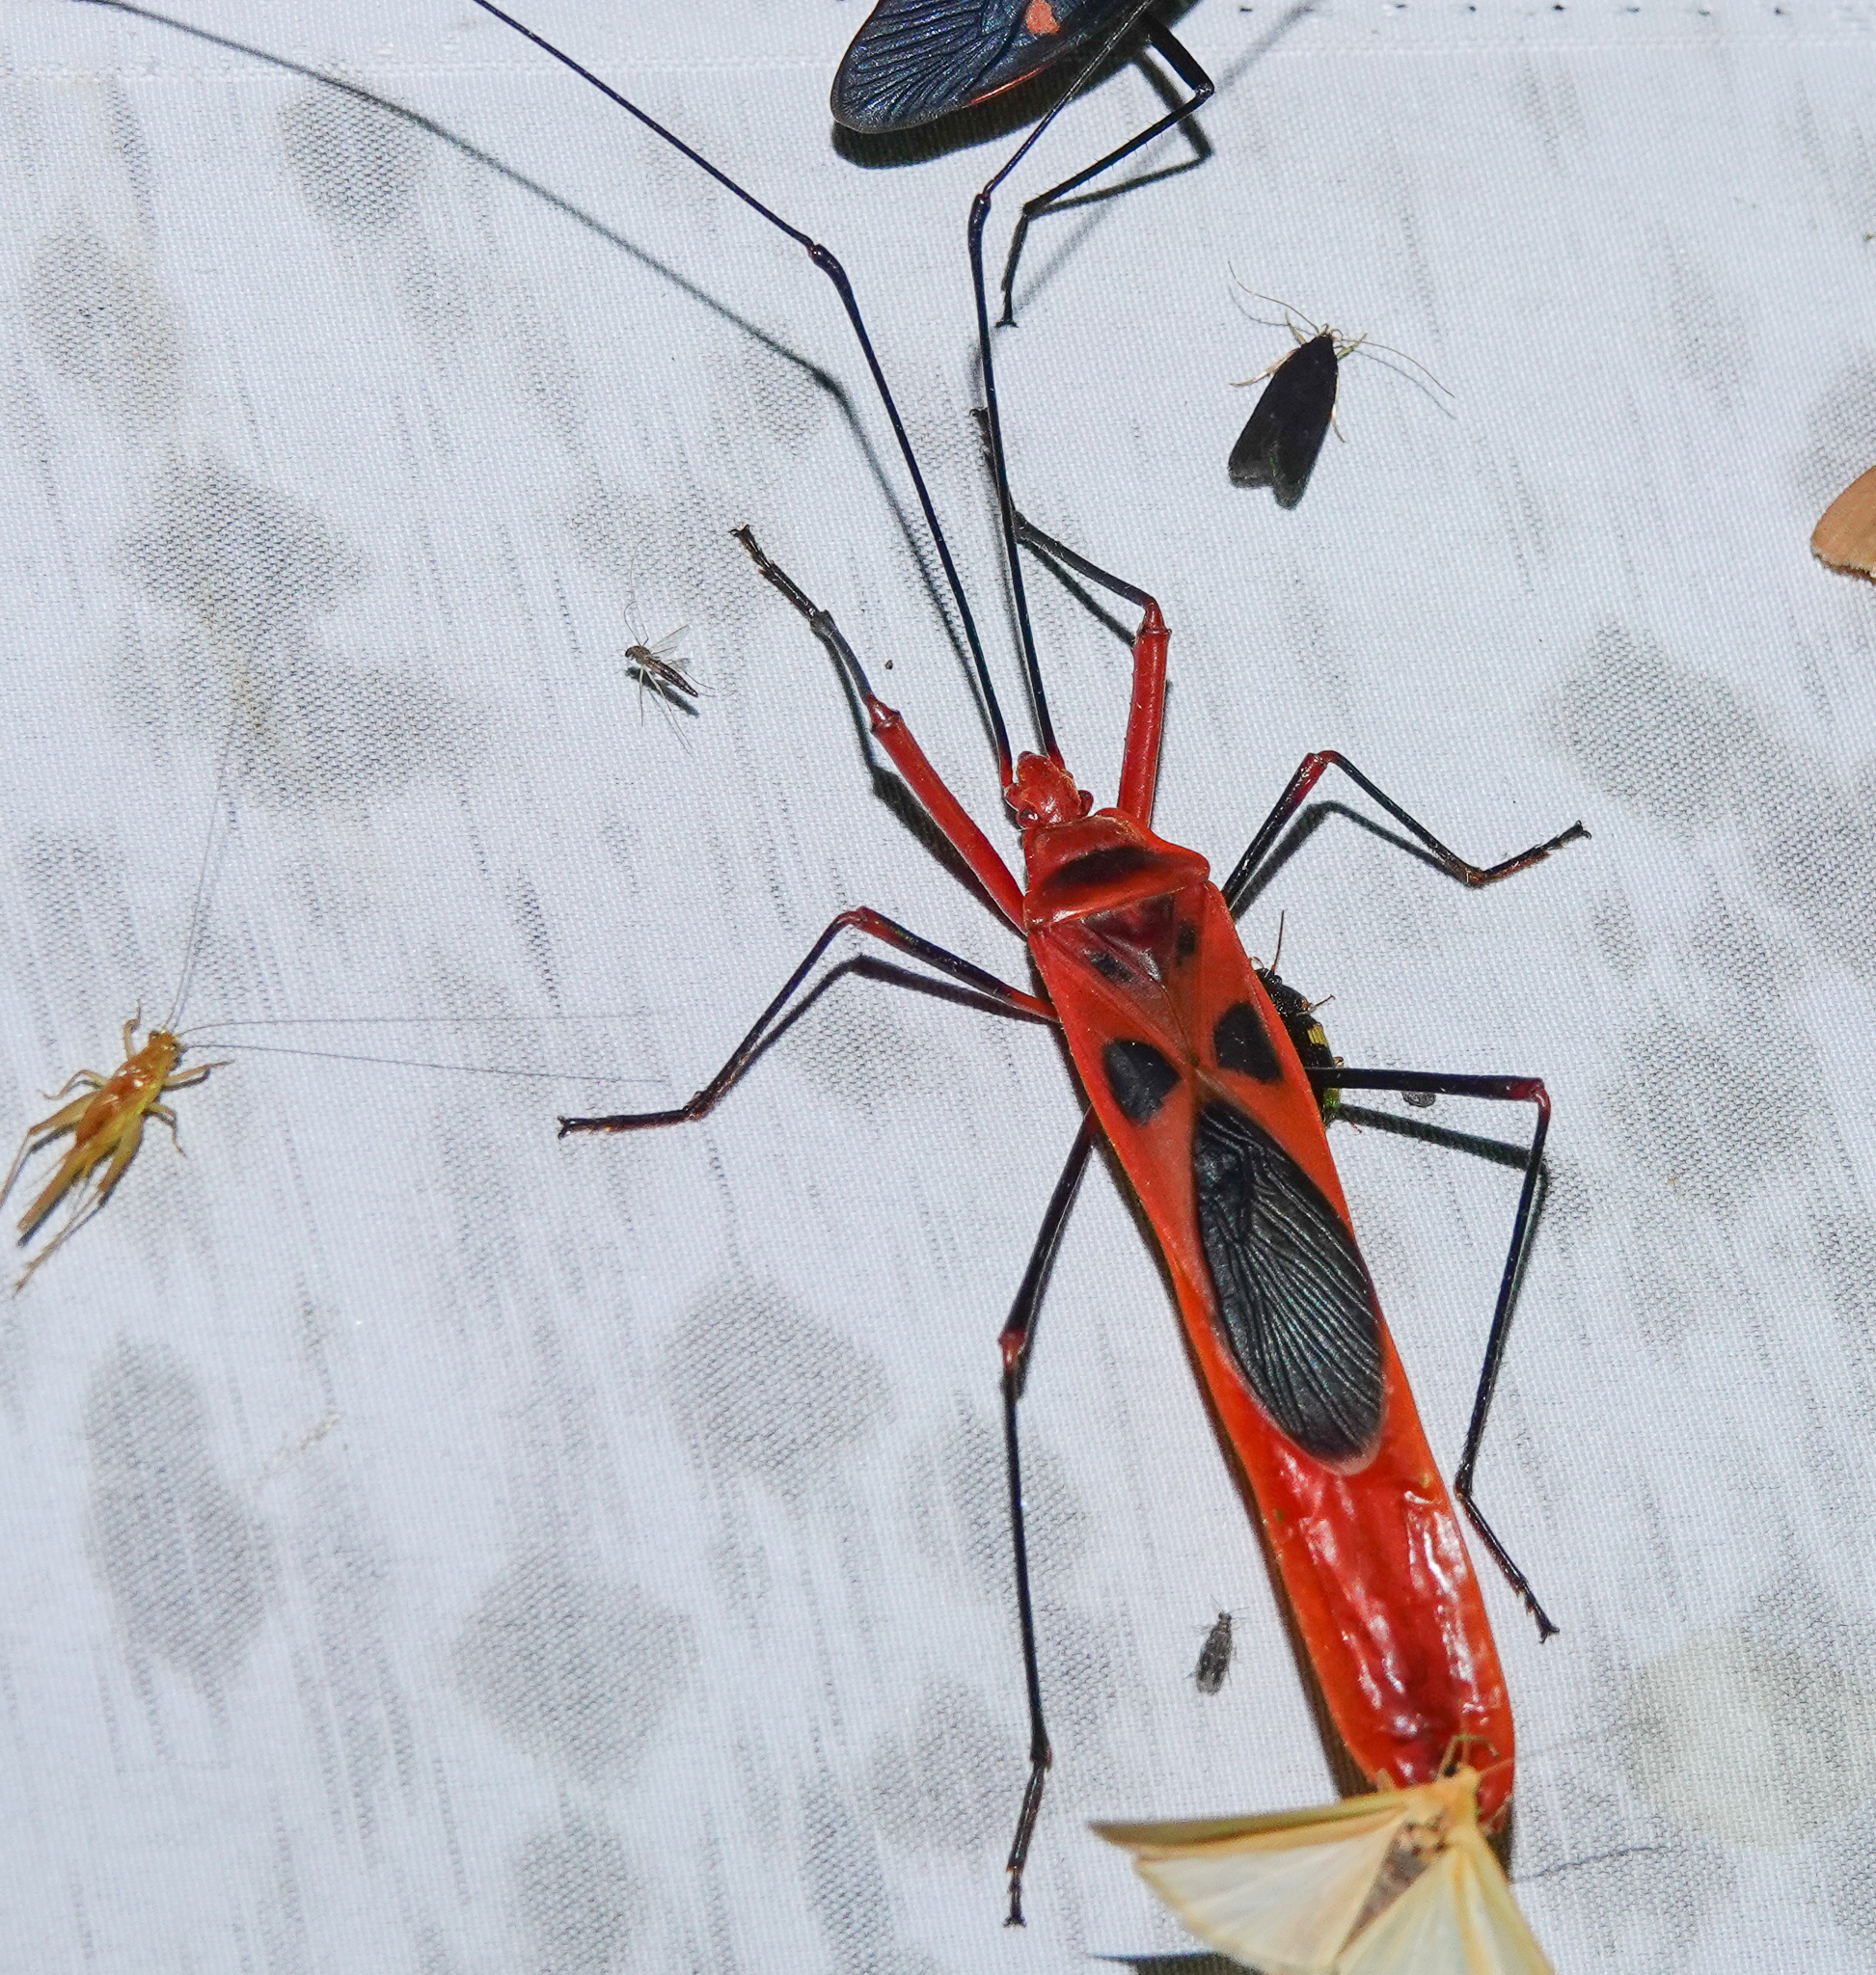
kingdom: Animalia
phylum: Arthropoda
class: Insecta
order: Hemiptera
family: Largidae
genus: Macrocheraia
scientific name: Macrocheraia grandis
